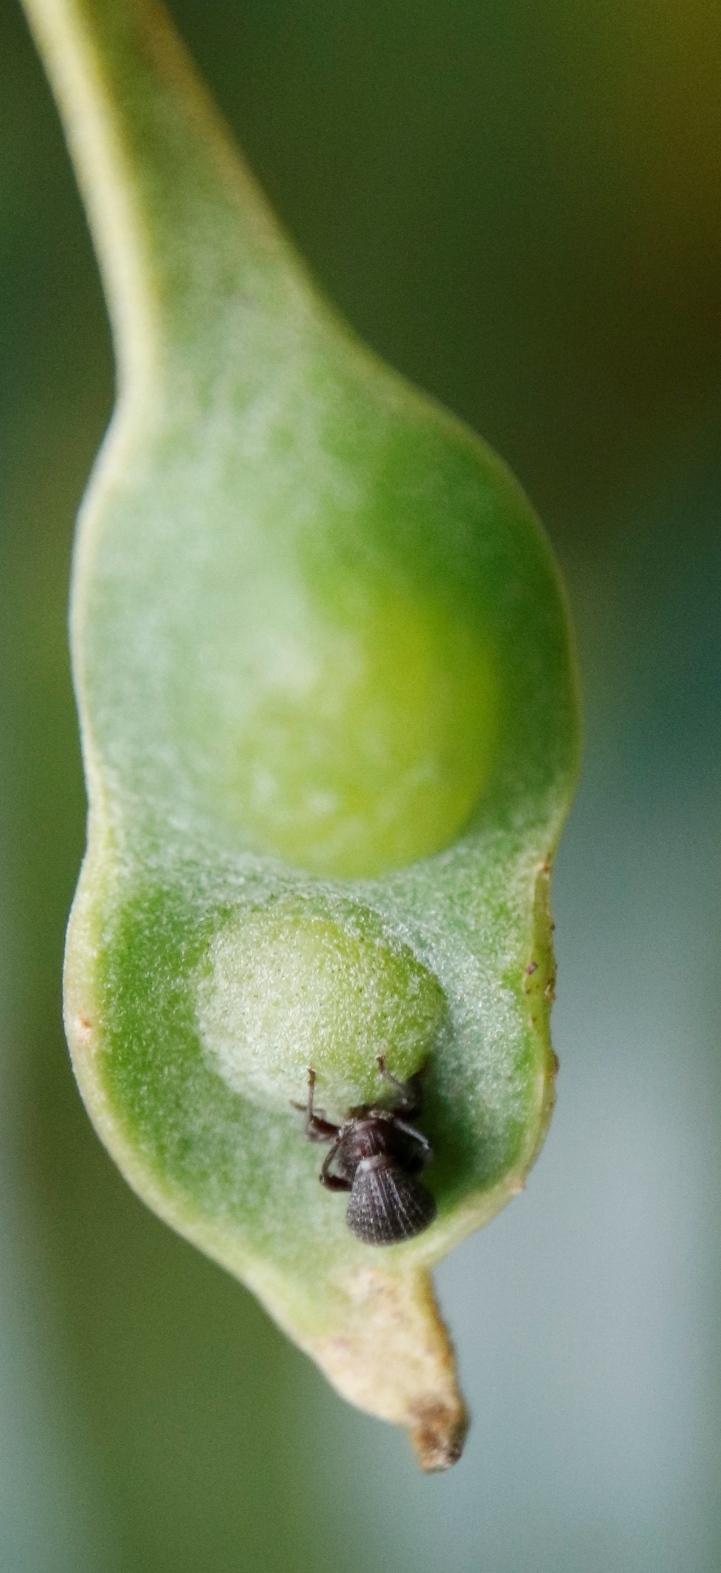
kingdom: Animalia
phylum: Arthropoda
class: Insecta
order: Coleoptera
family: Curculionidae
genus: Melanterius
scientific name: Melanterius servulus
